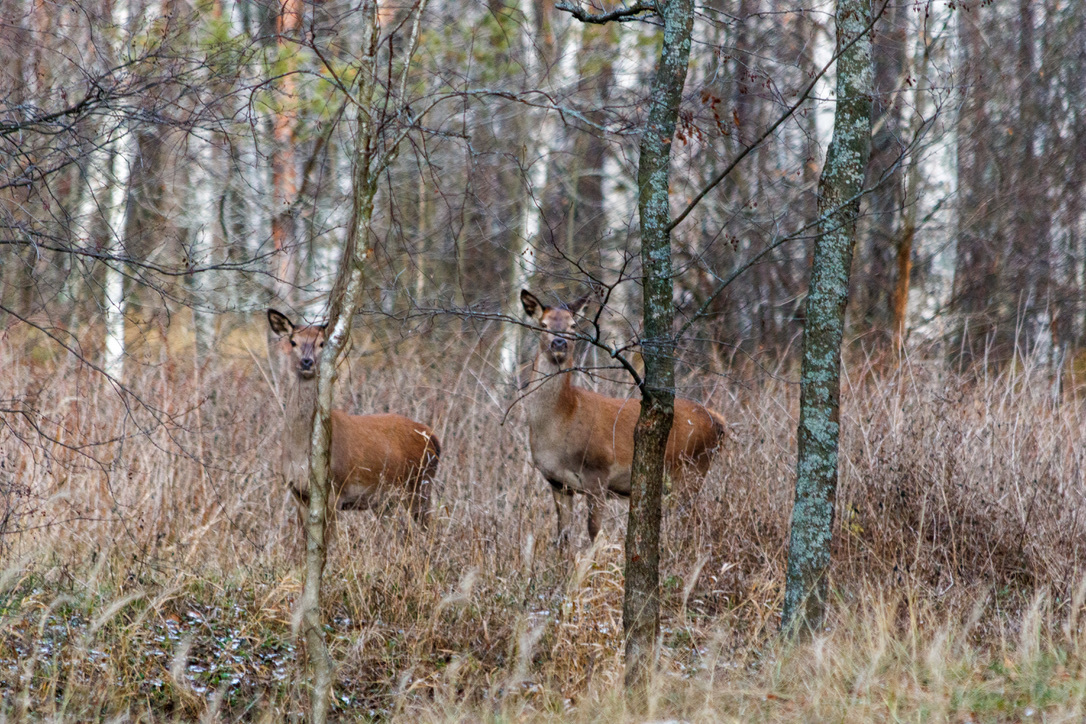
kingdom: Animalia
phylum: Chordata
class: Mammalia
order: Artiodactyla
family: Cervidae
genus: Cervus
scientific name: Cervus elaphus
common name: Red deer
